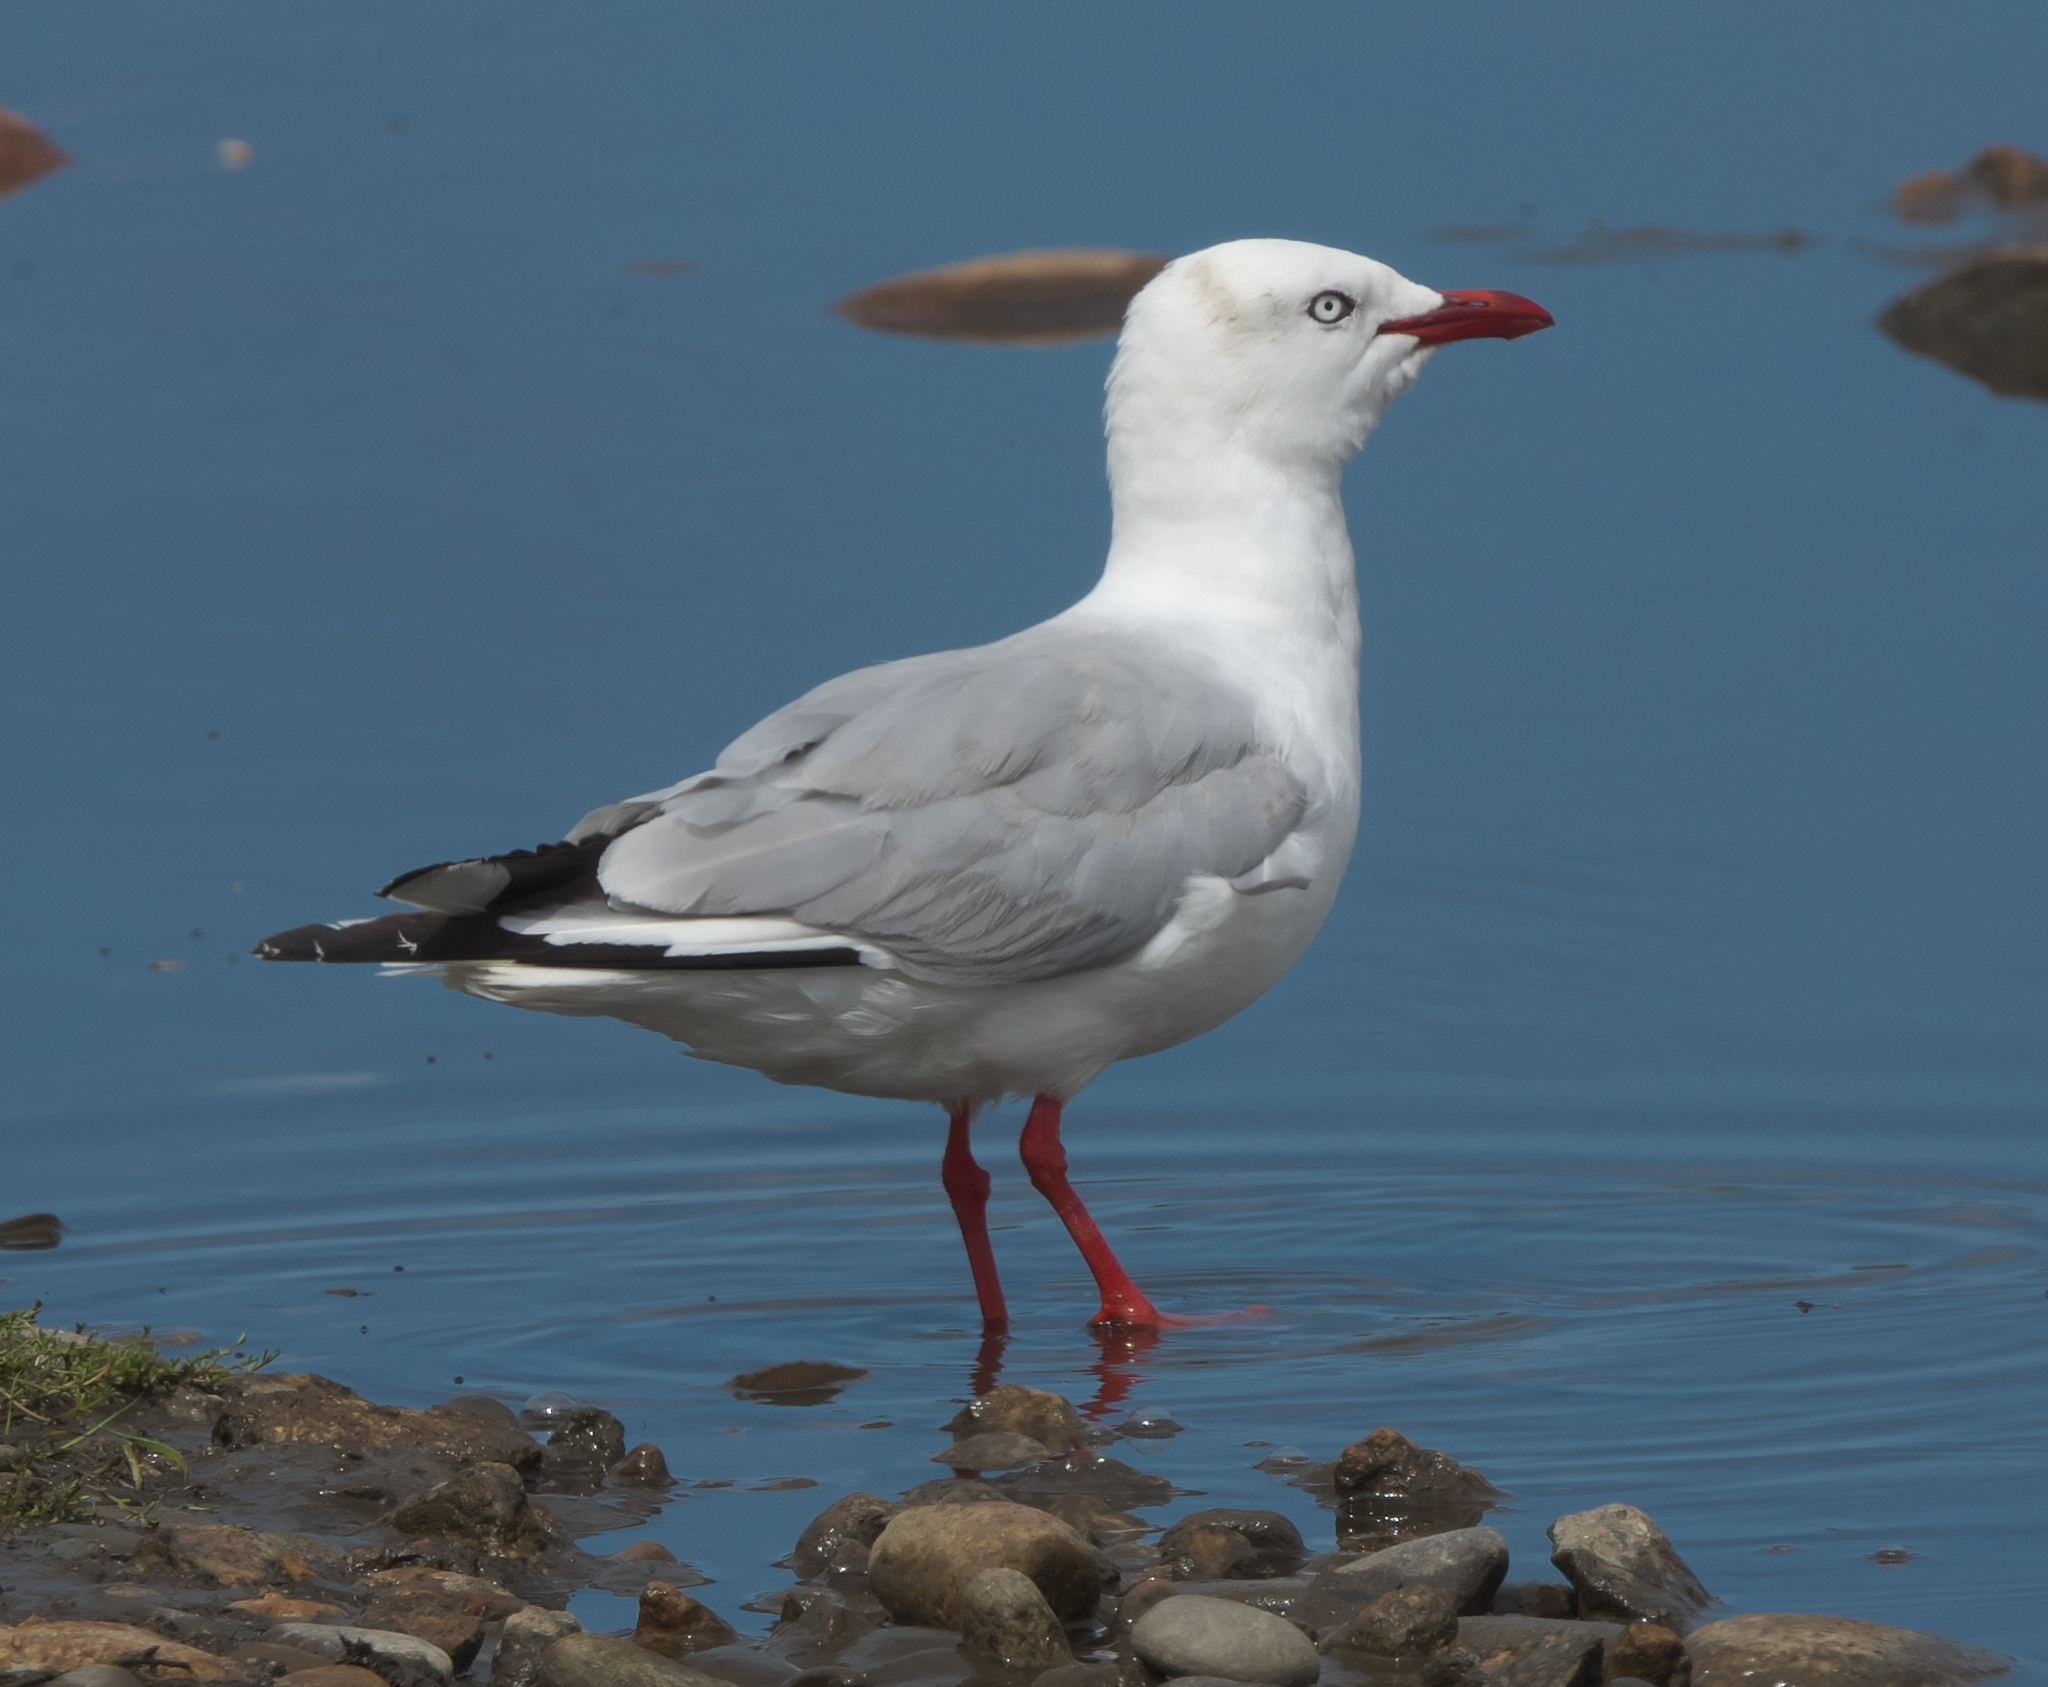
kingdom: Animalia
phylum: Chordata
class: Aves
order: Charadriiformes
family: Laridae
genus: Chroicocephalus
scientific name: Chroicocephalus novaehollandiae
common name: Silver gull
